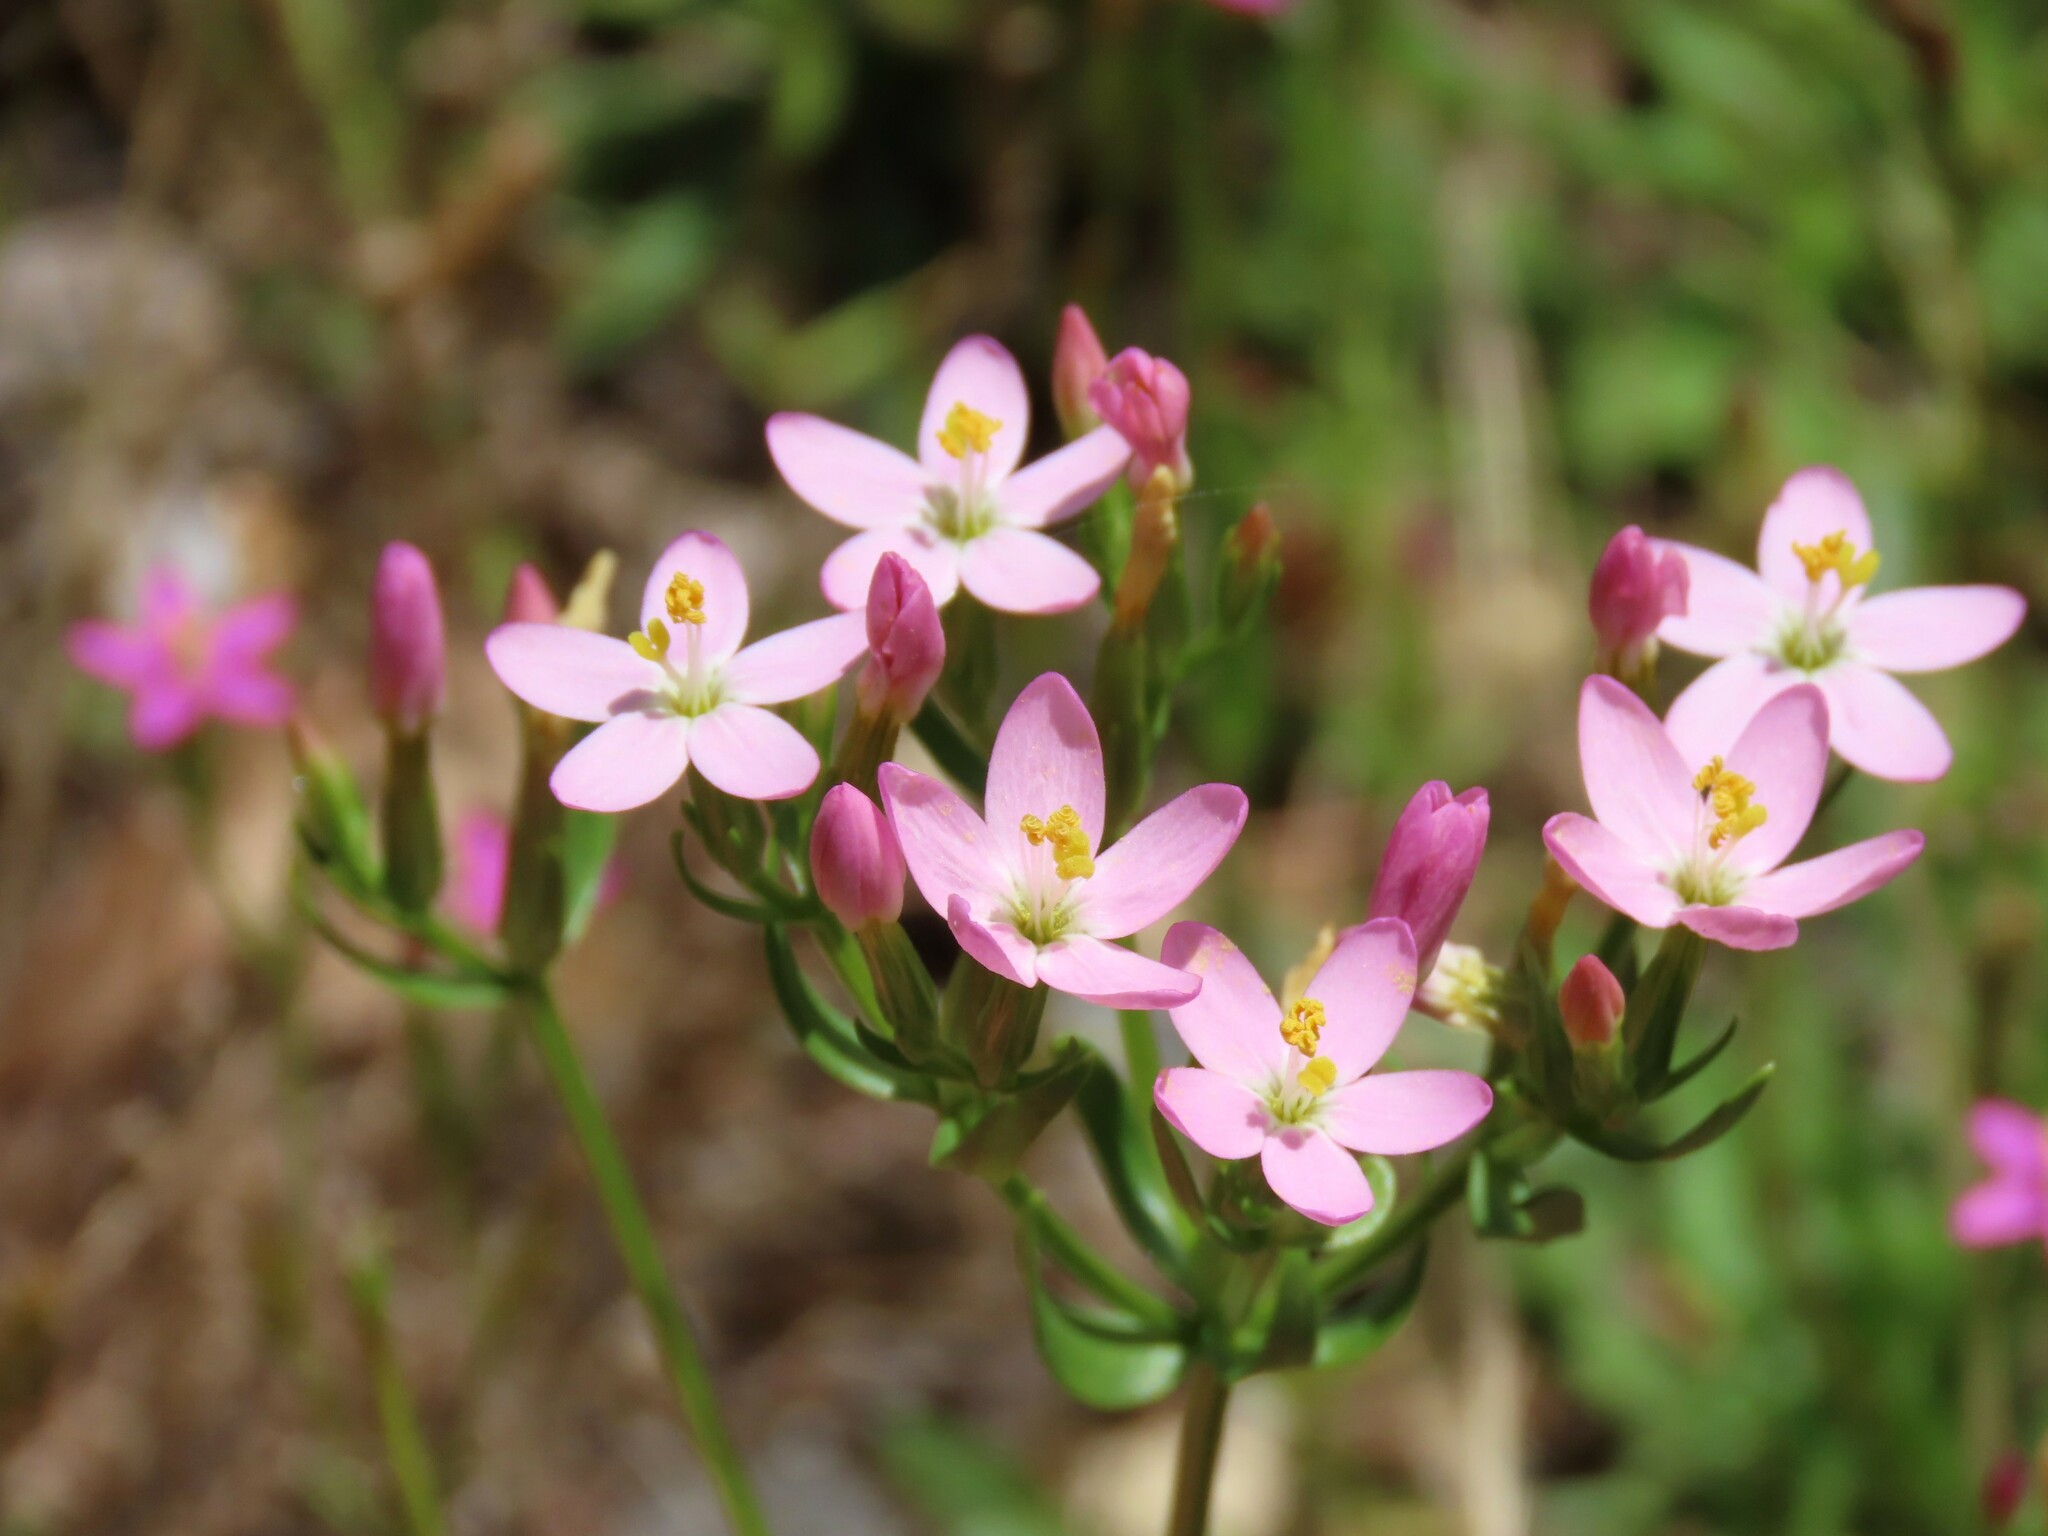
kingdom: Plantae
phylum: Tracheophyta
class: Magnoliopsida
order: Gentianales
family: Gentianaceae
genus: Centaurium
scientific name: Centaurium erythraea
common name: Common centaury
